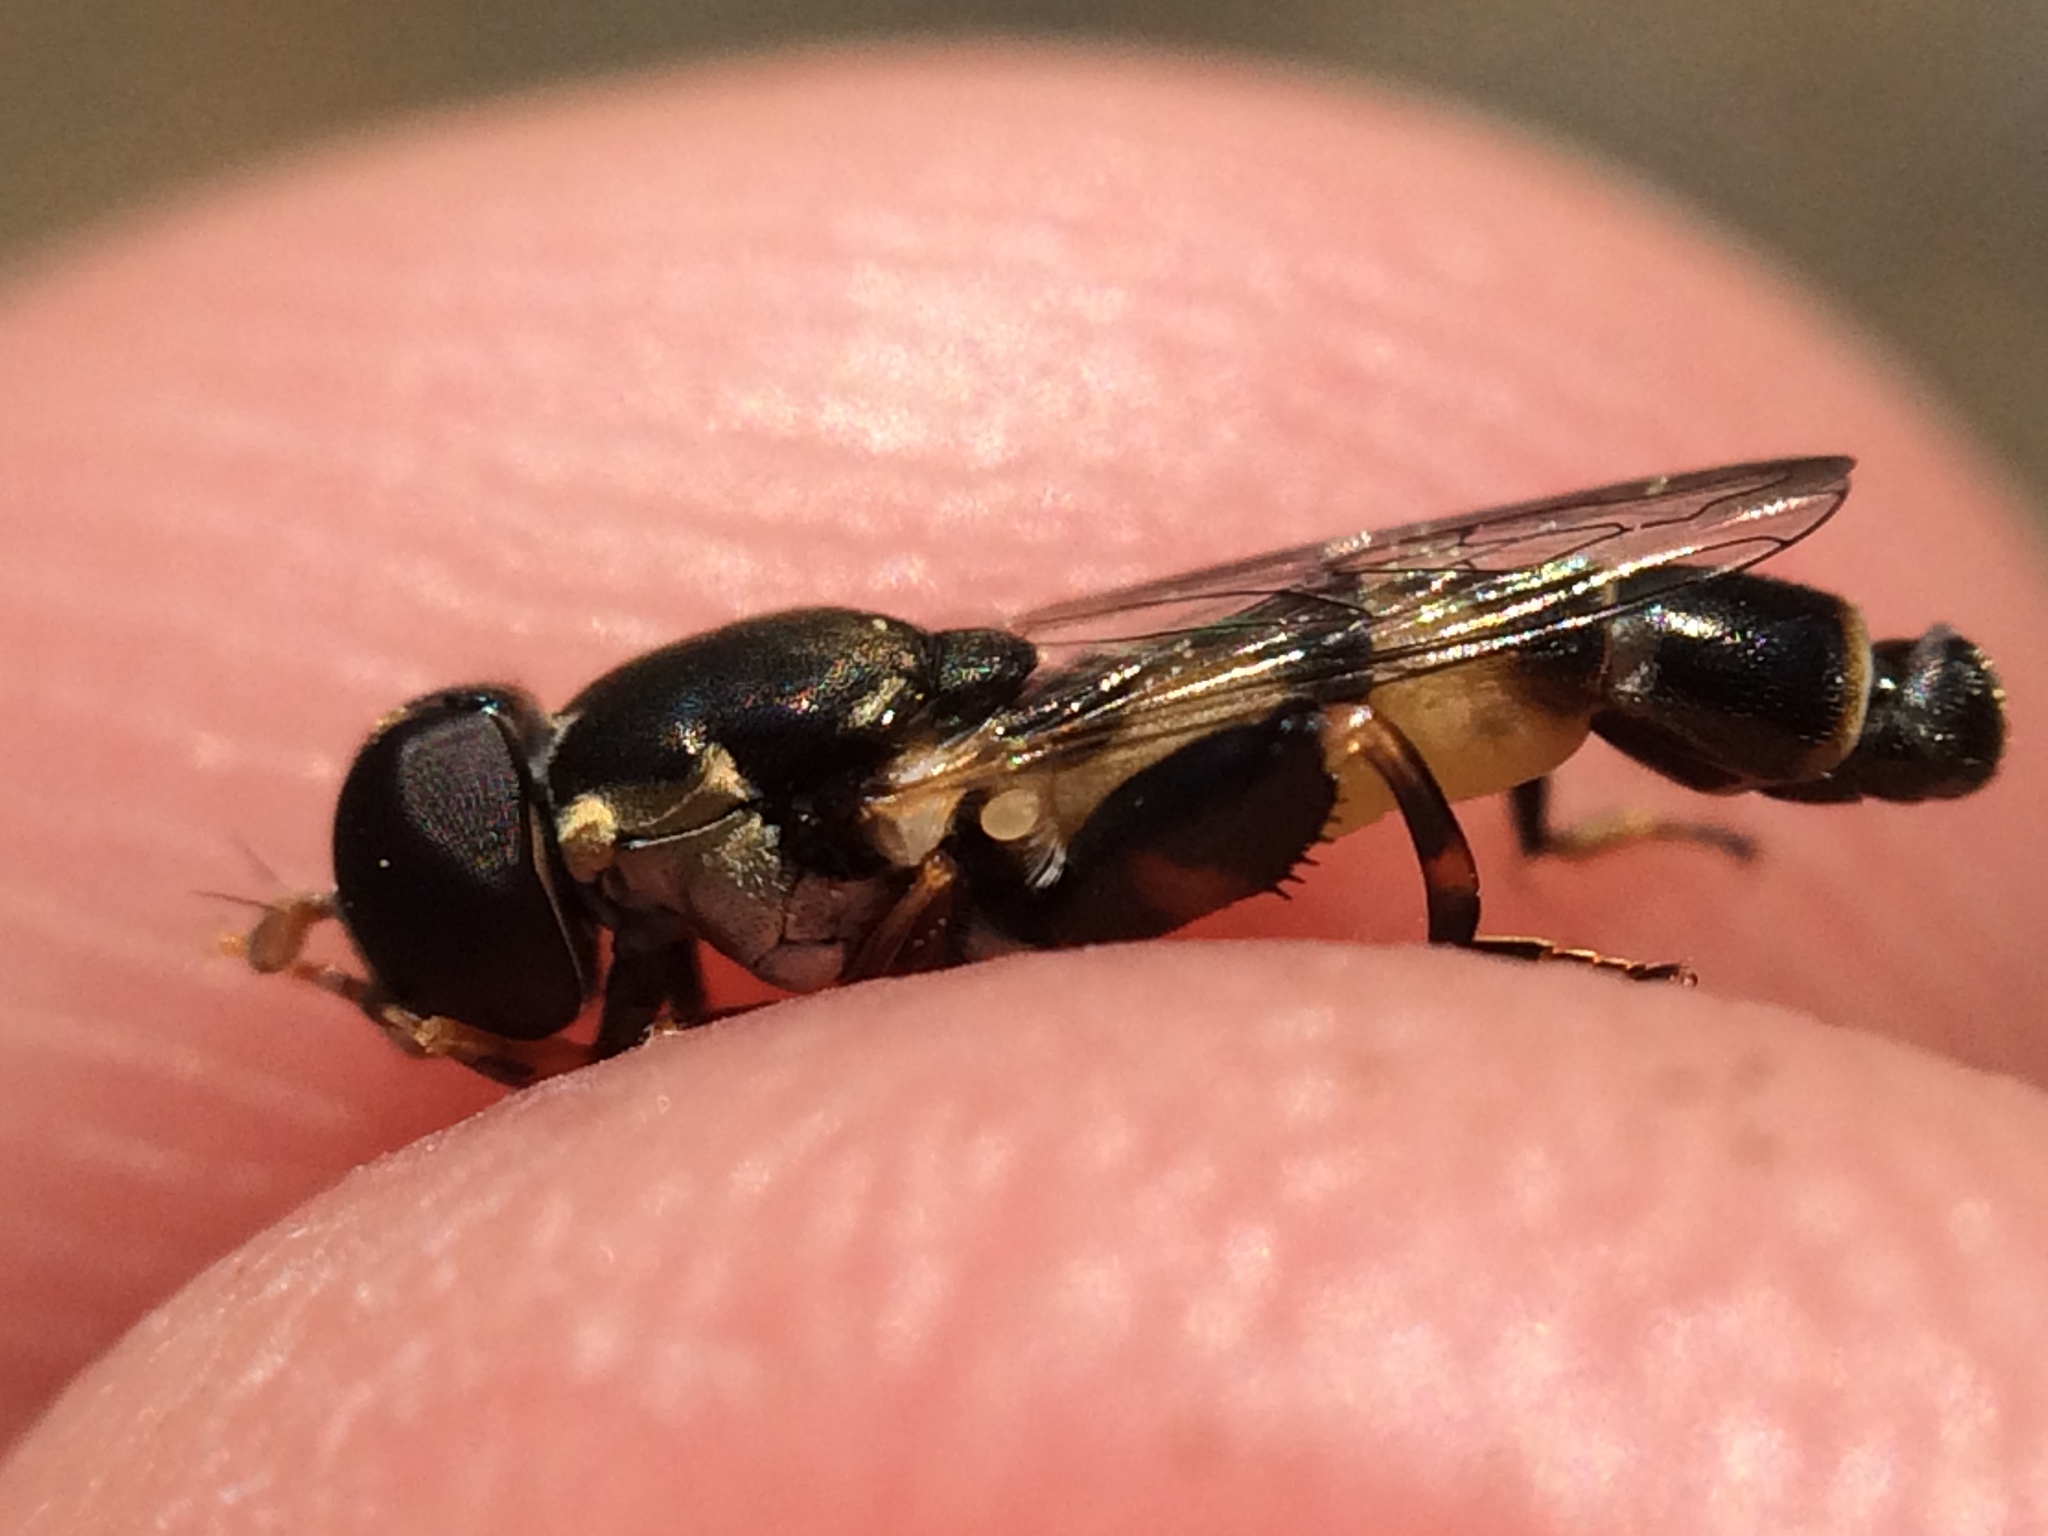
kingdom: Animalia
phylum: Arthropoda
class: Insecta
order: Diptera
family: Syrphidae
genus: Syritta
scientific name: Syritta pipiens
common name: Hover fly
